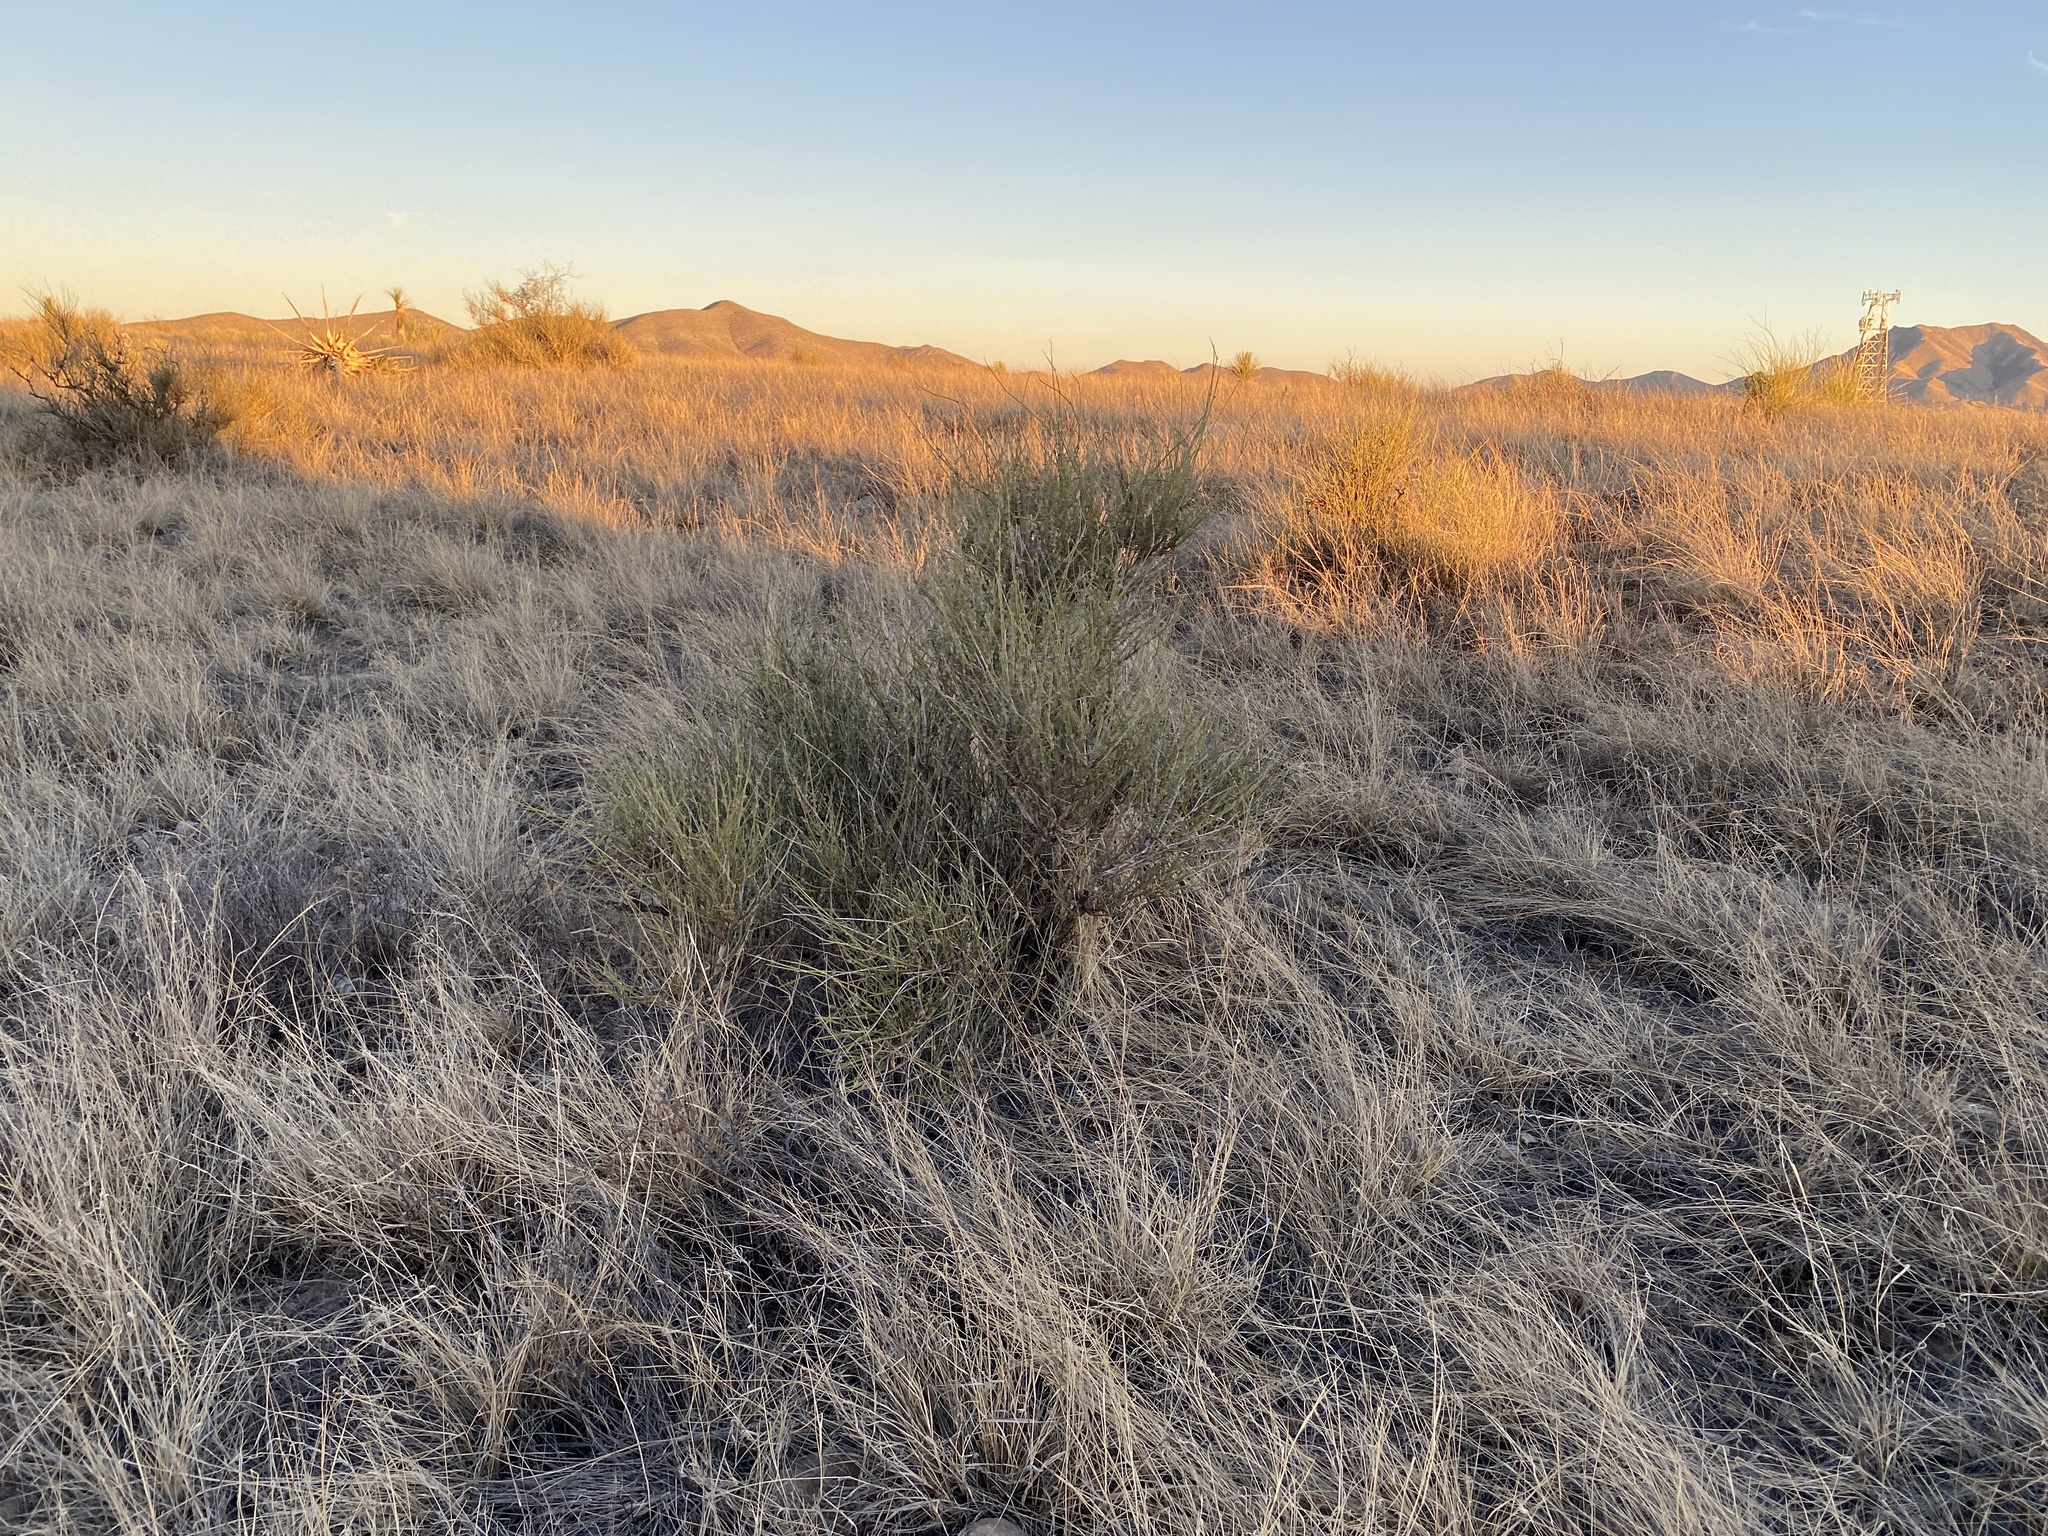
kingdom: Plantae
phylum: Tracheophyta
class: Gnetopsida
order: Ephedrales
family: Ephedraceae
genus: Ephedra
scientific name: Ephedra trifurca
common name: Mexican-tea
